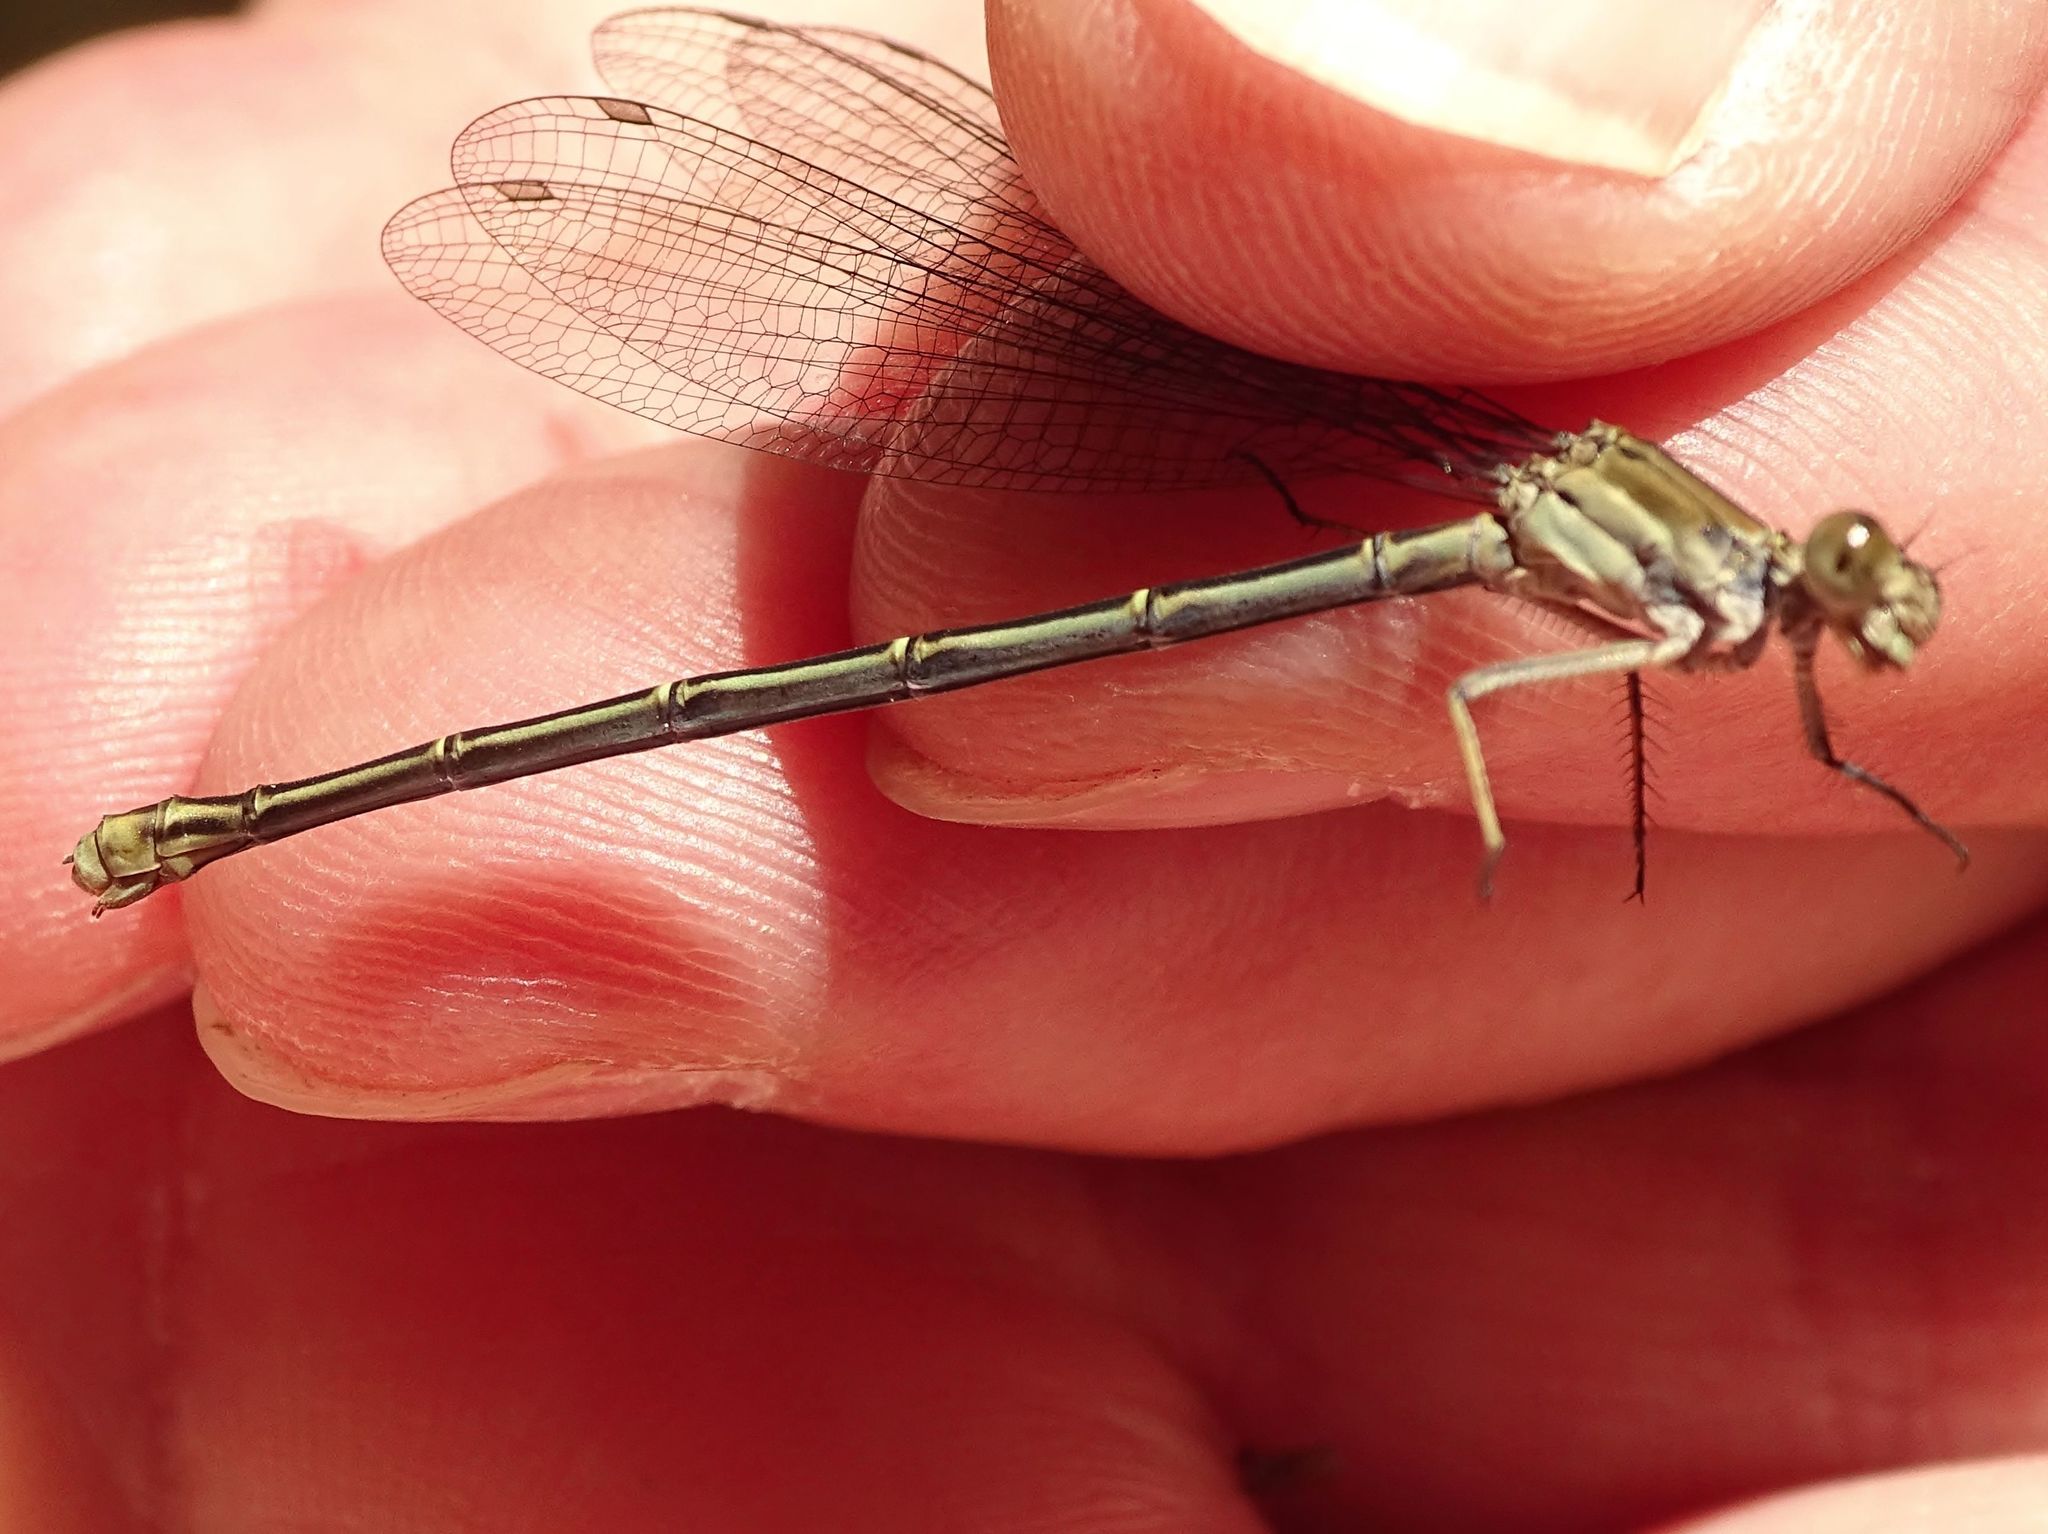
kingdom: Animalia
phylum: Arthropoda
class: Insecta
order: Odonata
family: Coenagrionidae
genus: Argia
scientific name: Argia moesta
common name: Powdered dancer
